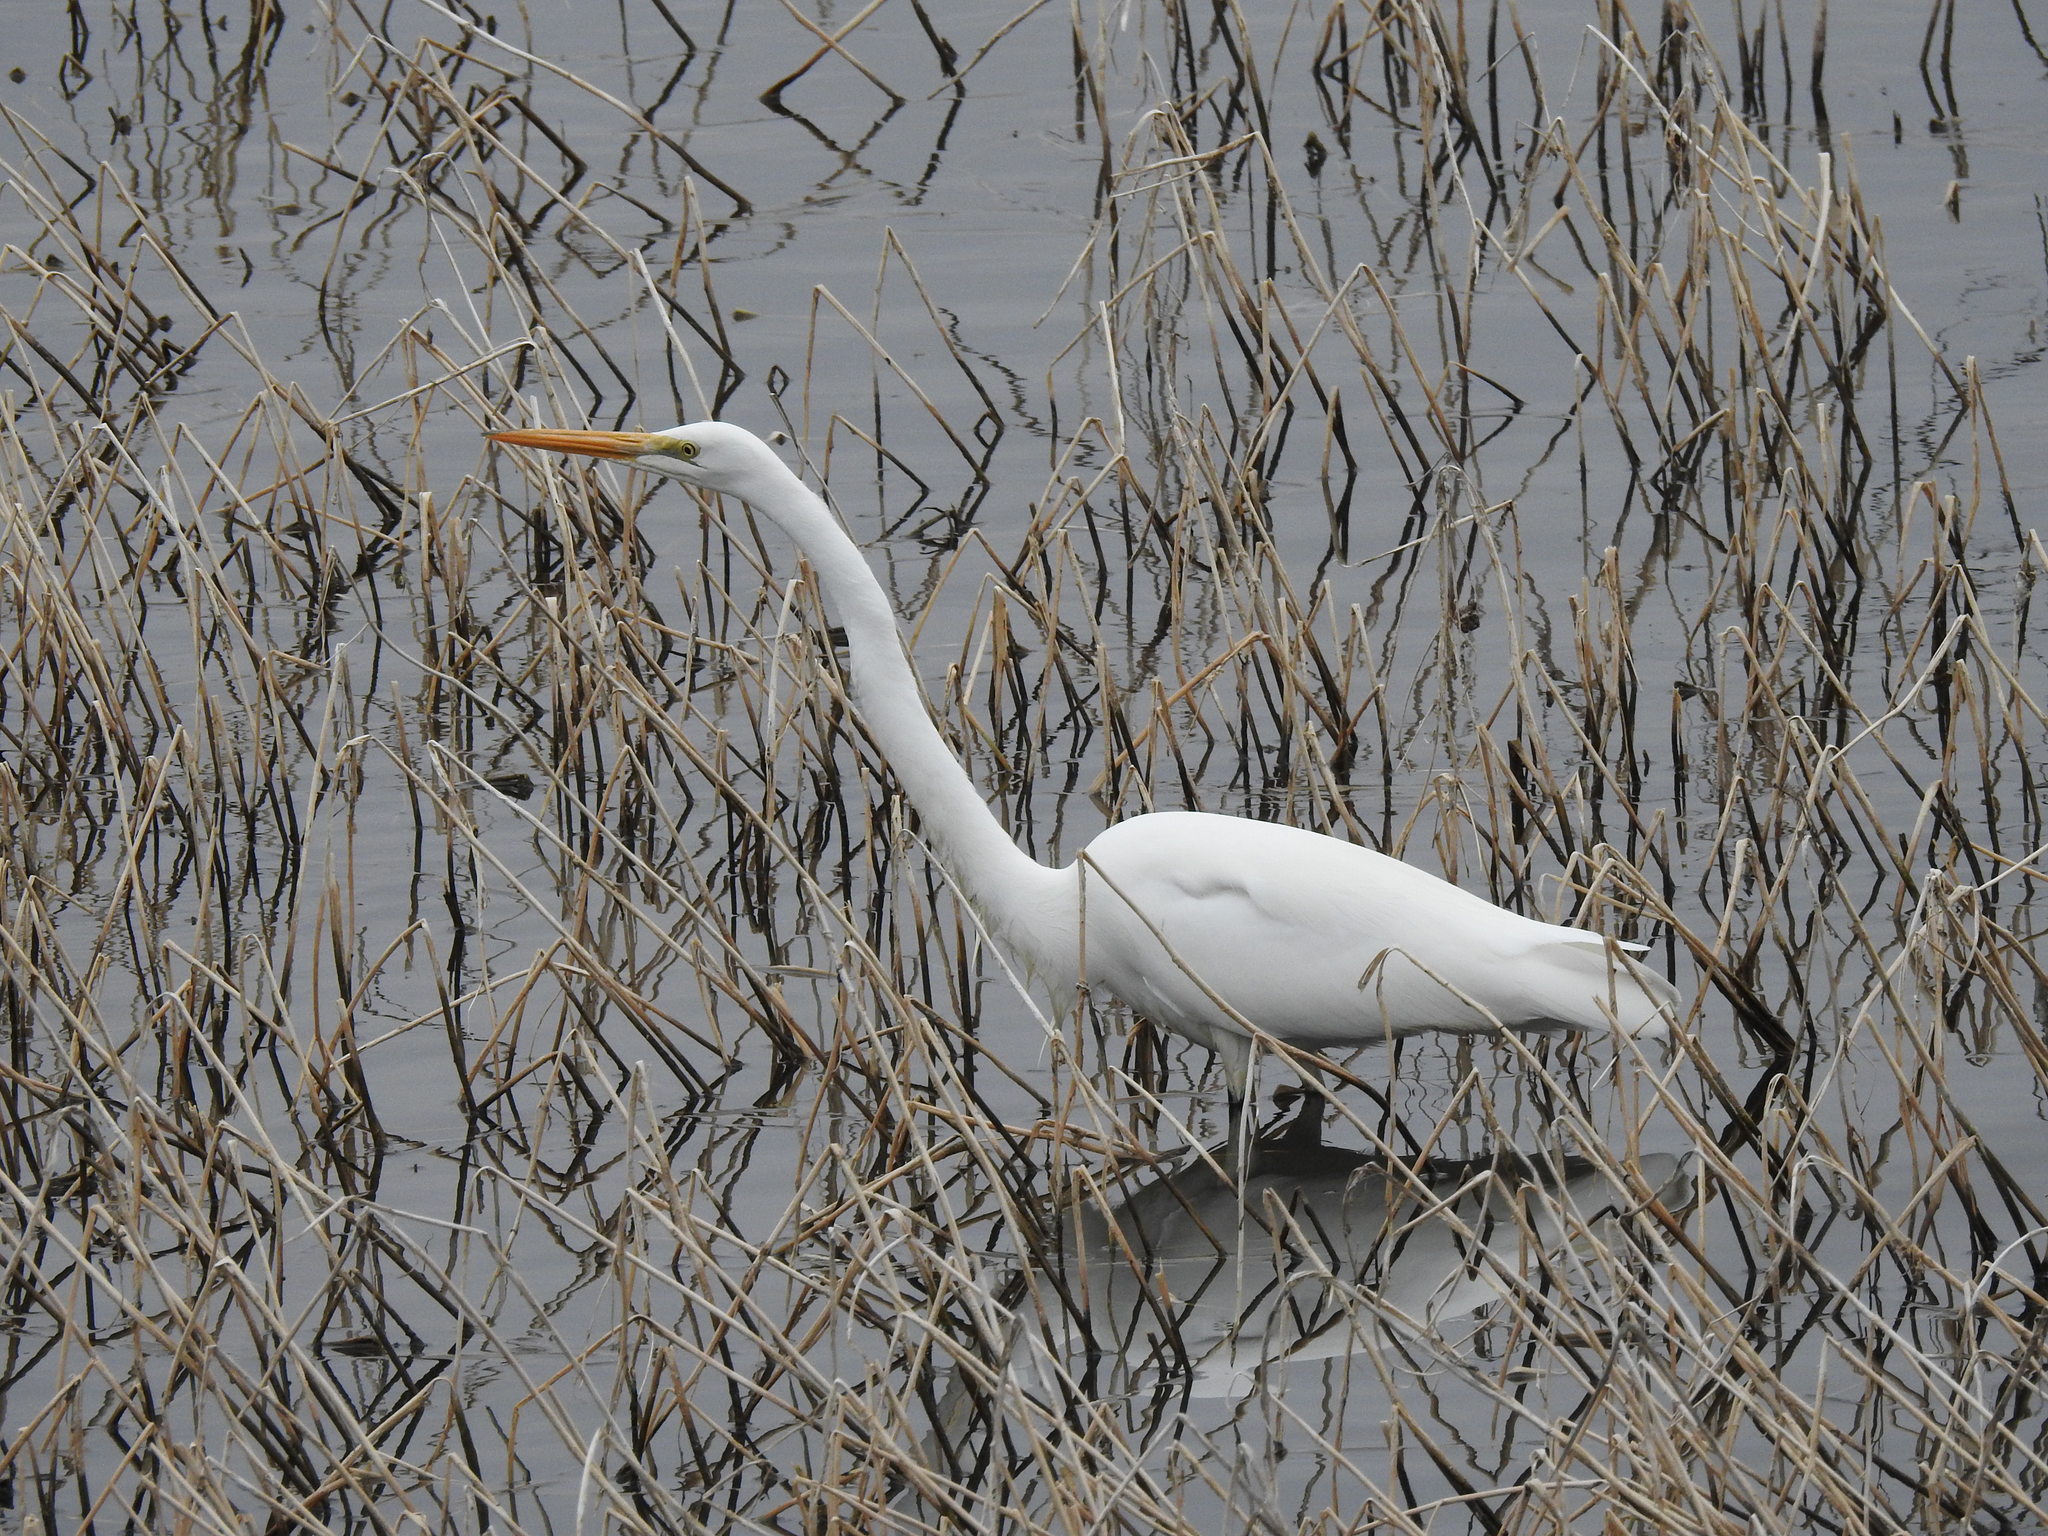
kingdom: Animalia
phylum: Chordata
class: Aves
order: Pelecaniformes
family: Ardeidae
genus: Ardea
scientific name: Ardea alba
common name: Great egret
